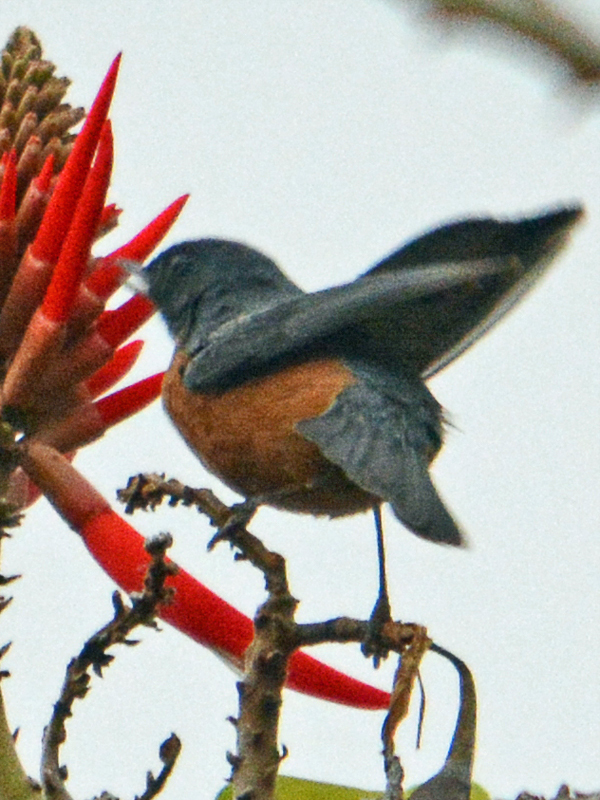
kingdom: Animalia
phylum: Chordata
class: Aves
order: Passeriformes
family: Thraupidae
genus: Diglossa
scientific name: Diglossa baritula
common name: Cinnamon-bellied flowerpiercer
